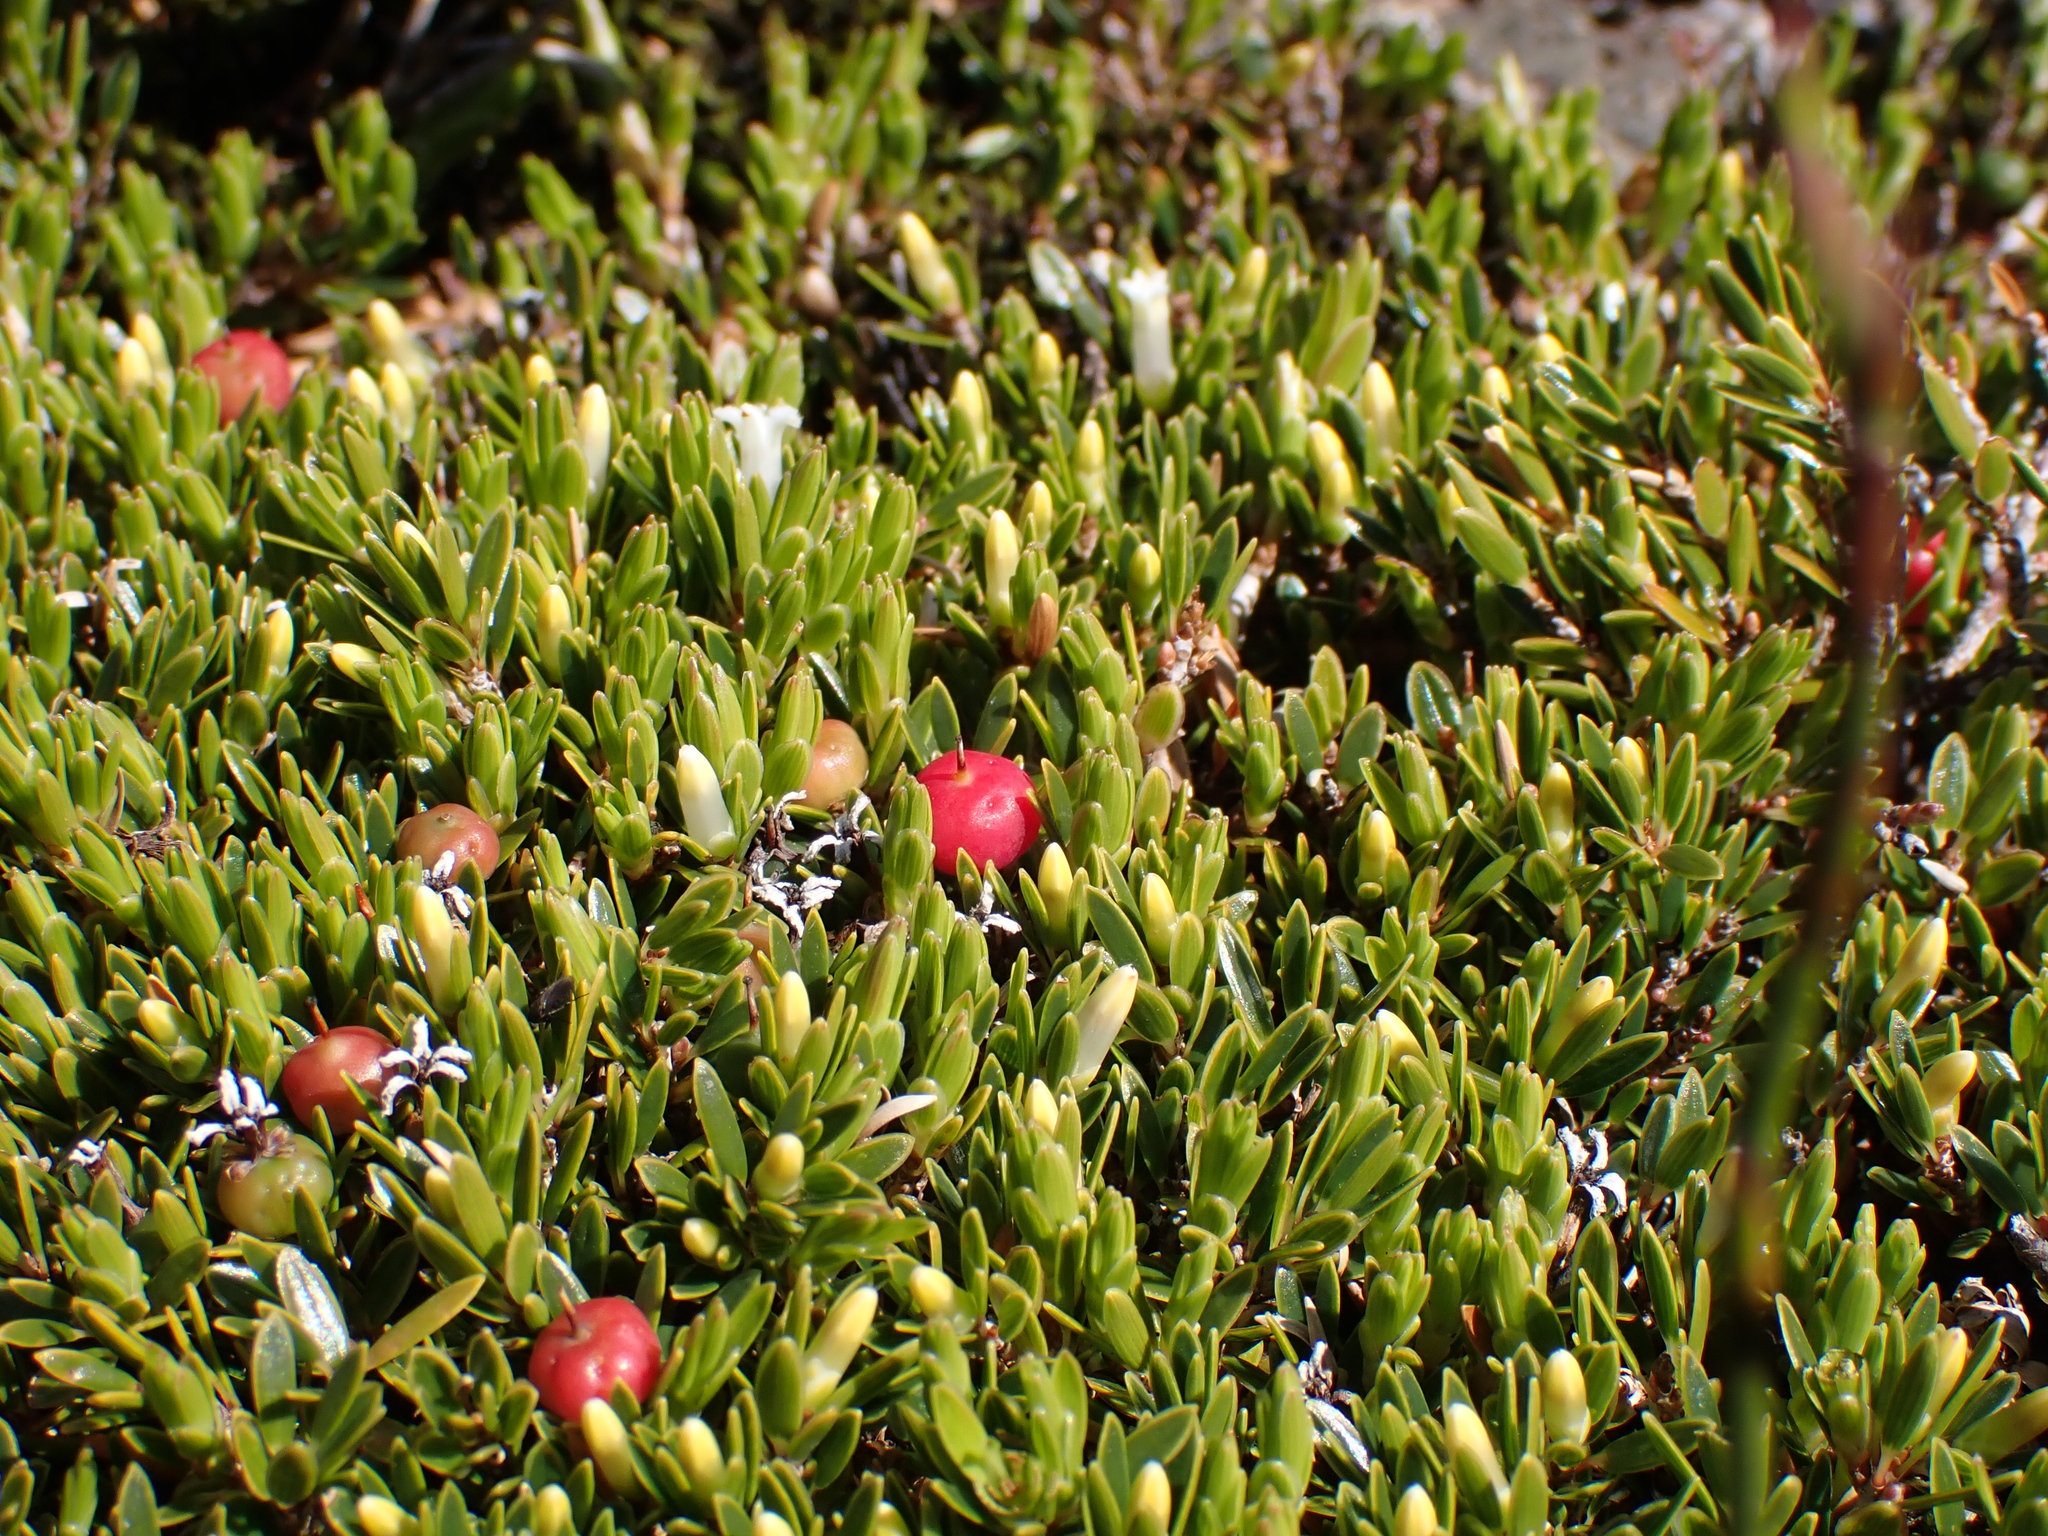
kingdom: Plantae
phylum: Tracheophyta
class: Magnoliopsida
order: Ericales
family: Ericaceae
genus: Pentachondra
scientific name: Pentachondra pumila
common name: Carpet-heath
